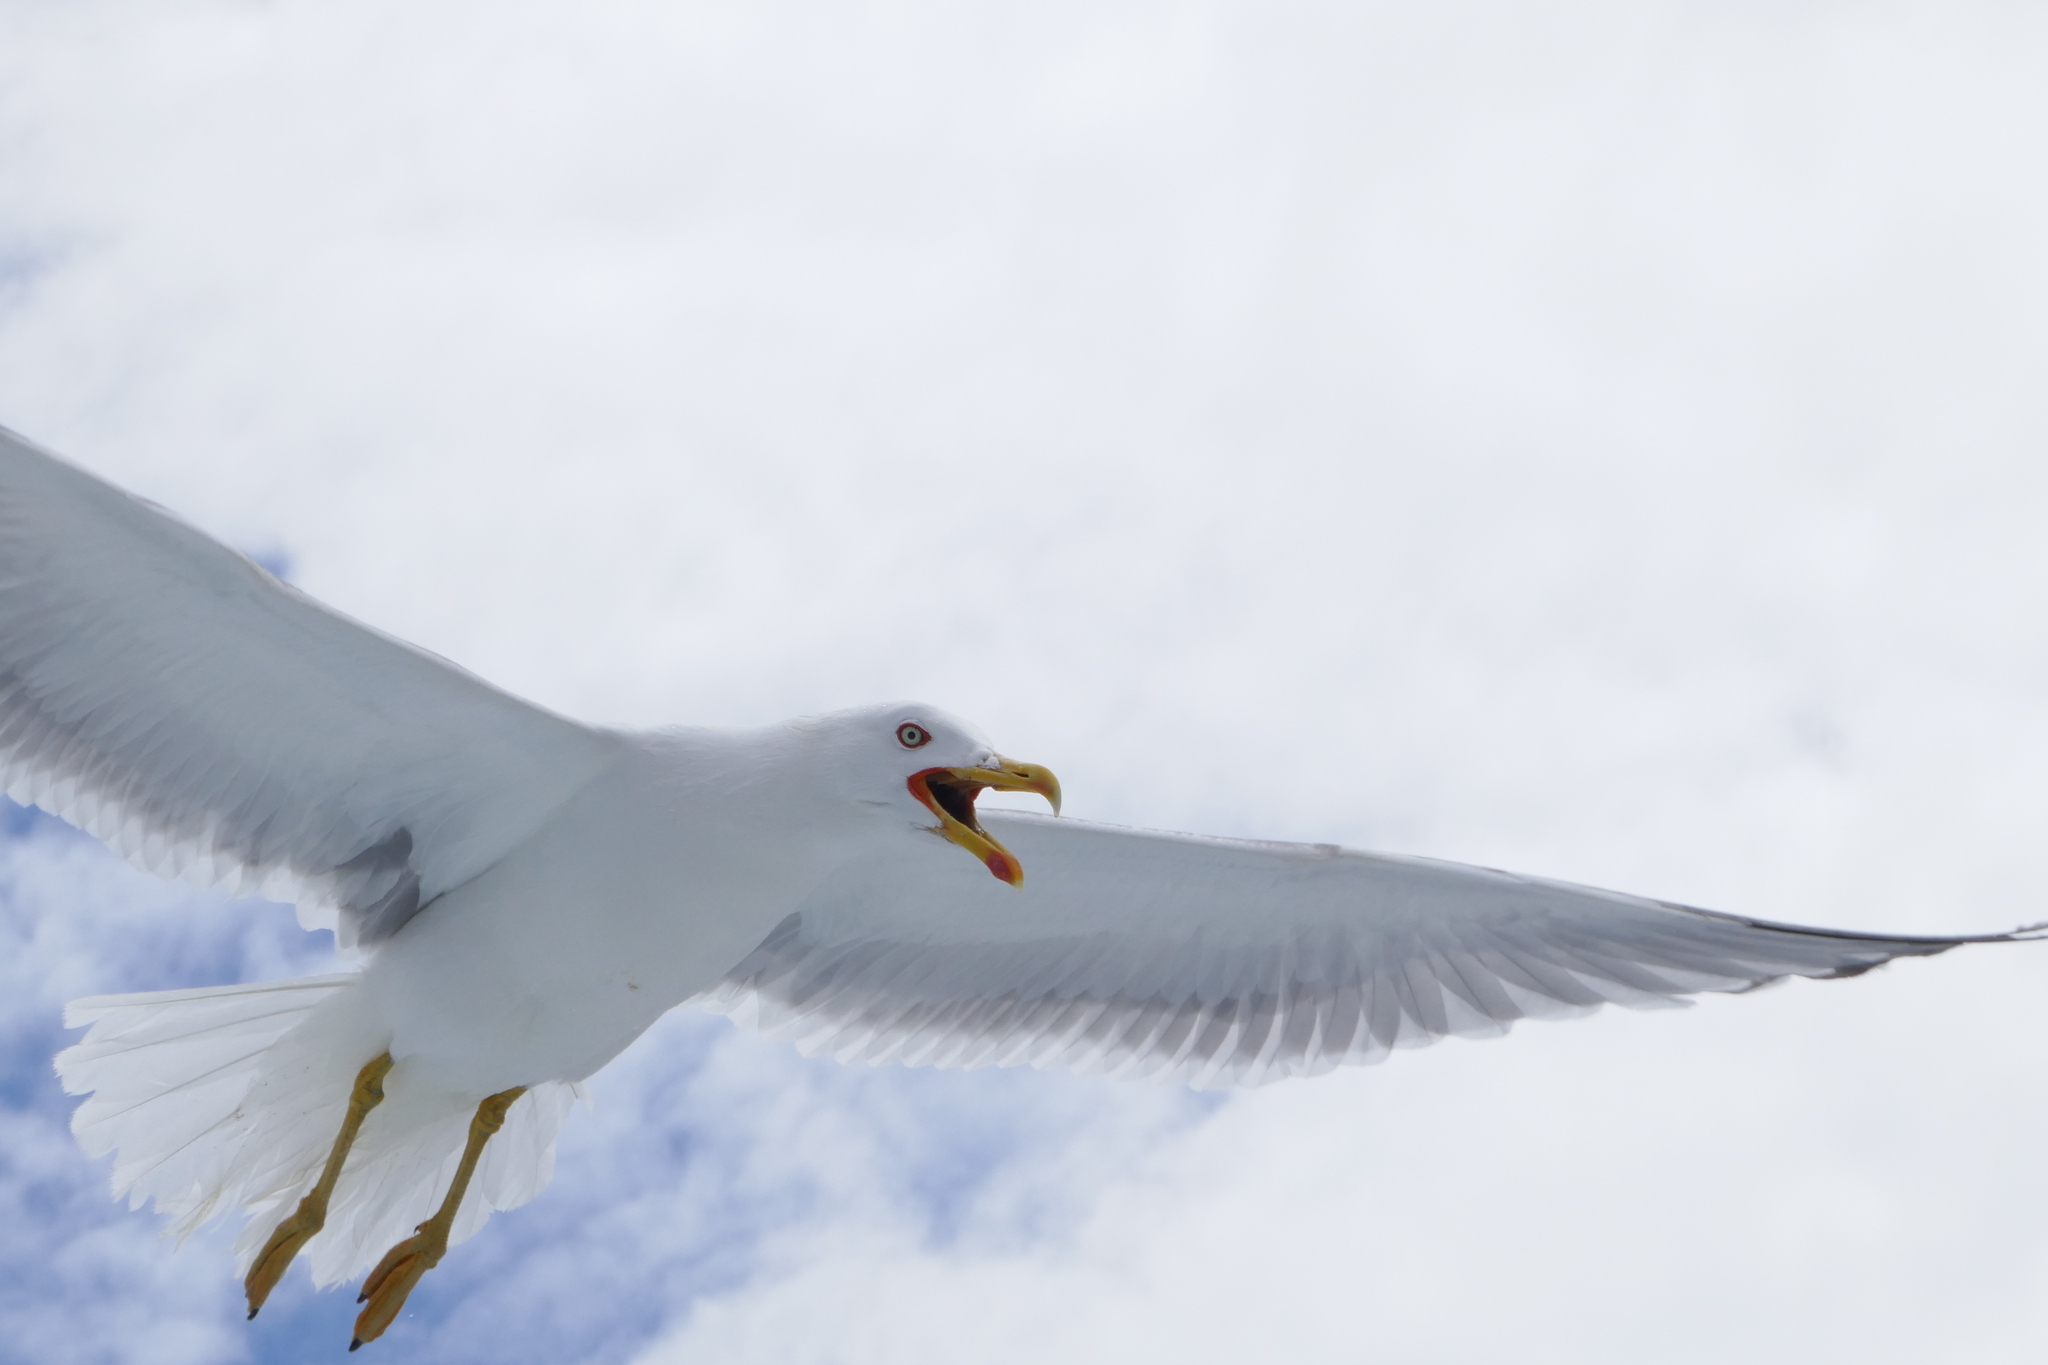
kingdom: Animalia
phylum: Chordata
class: Aves
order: Charadriiformes
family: Laridae
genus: Larus
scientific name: Larus michahellis
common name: Yellow-legged gull
